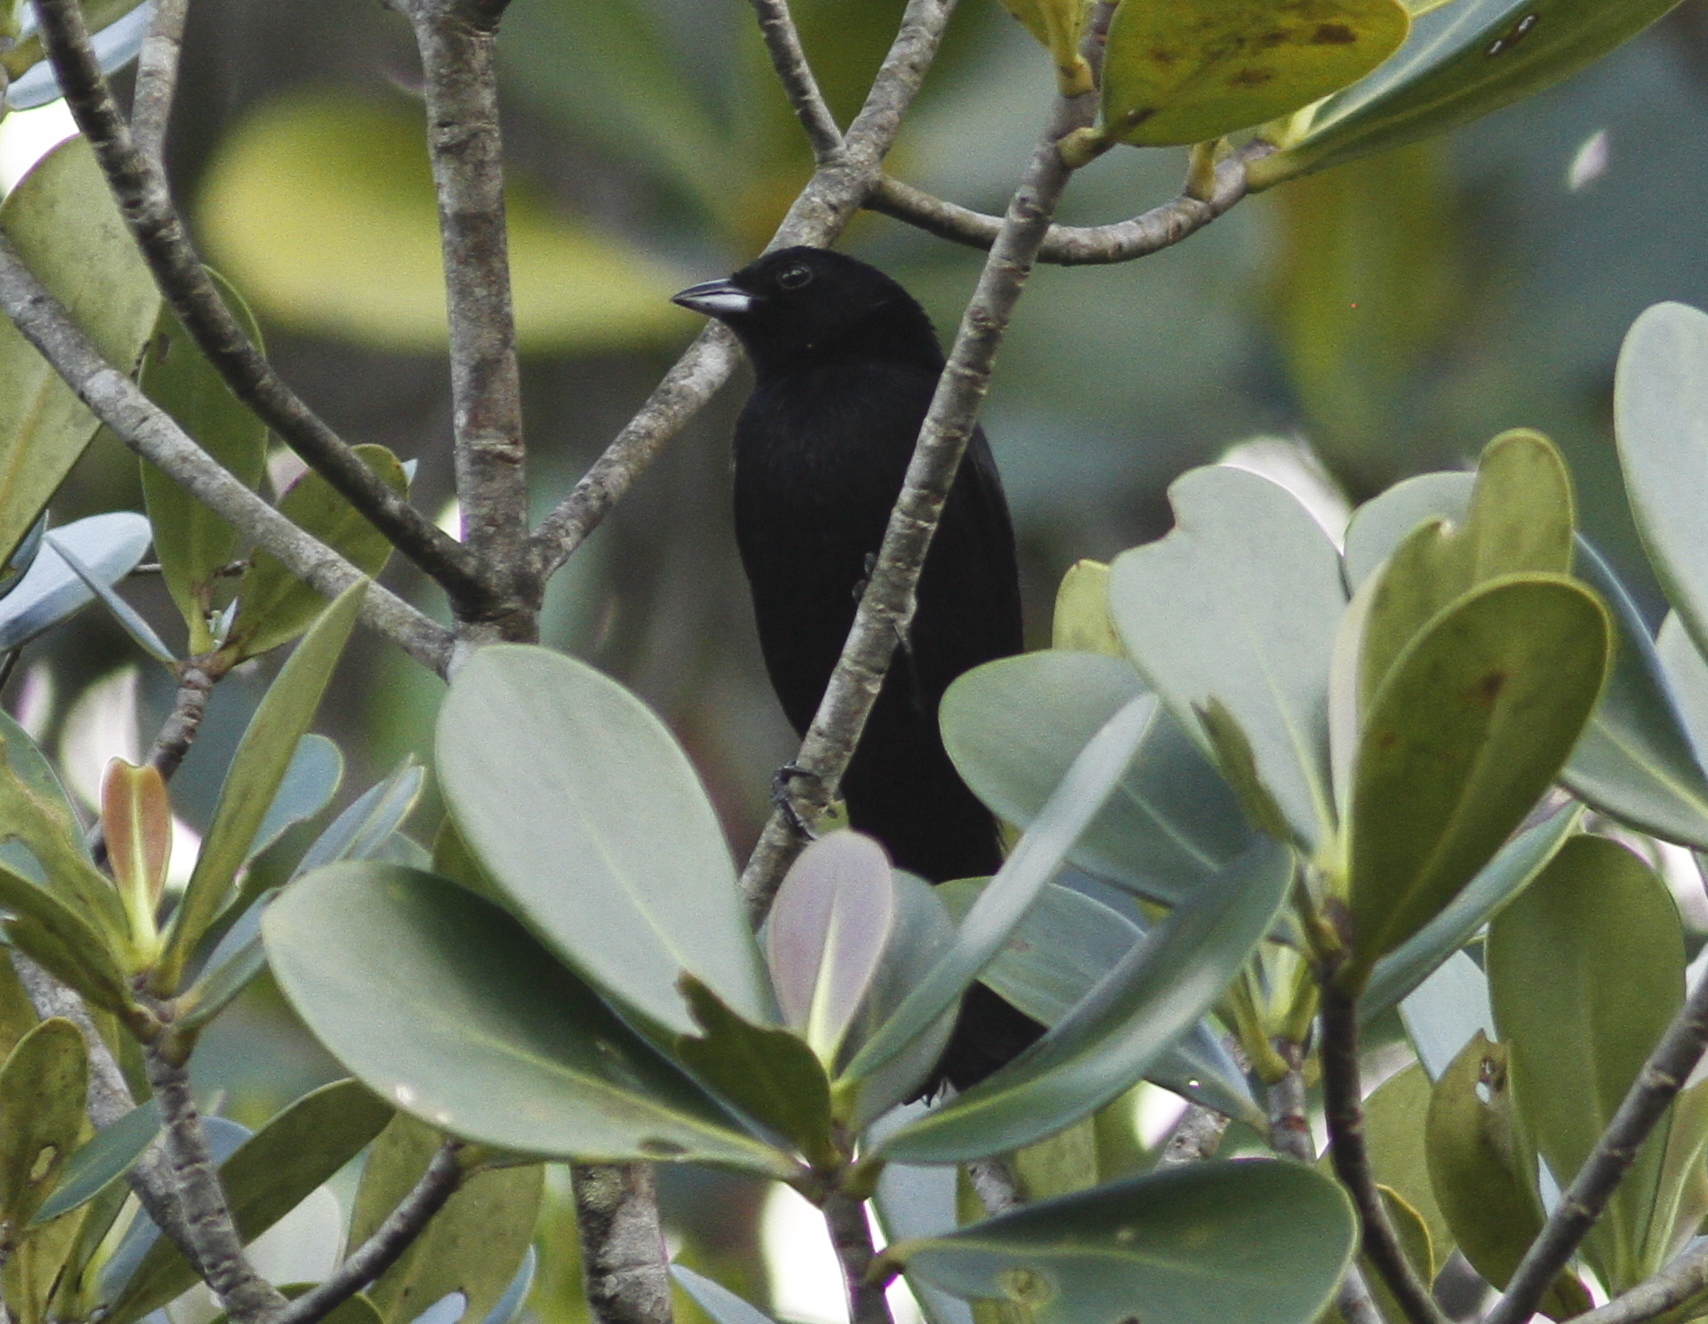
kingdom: Animalia
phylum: Chordata
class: Aves
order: Passeriformes
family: Thraupidae
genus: Tachyphonus
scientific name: Tachyphonus phoenicius
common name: Red-shouldered tanager
